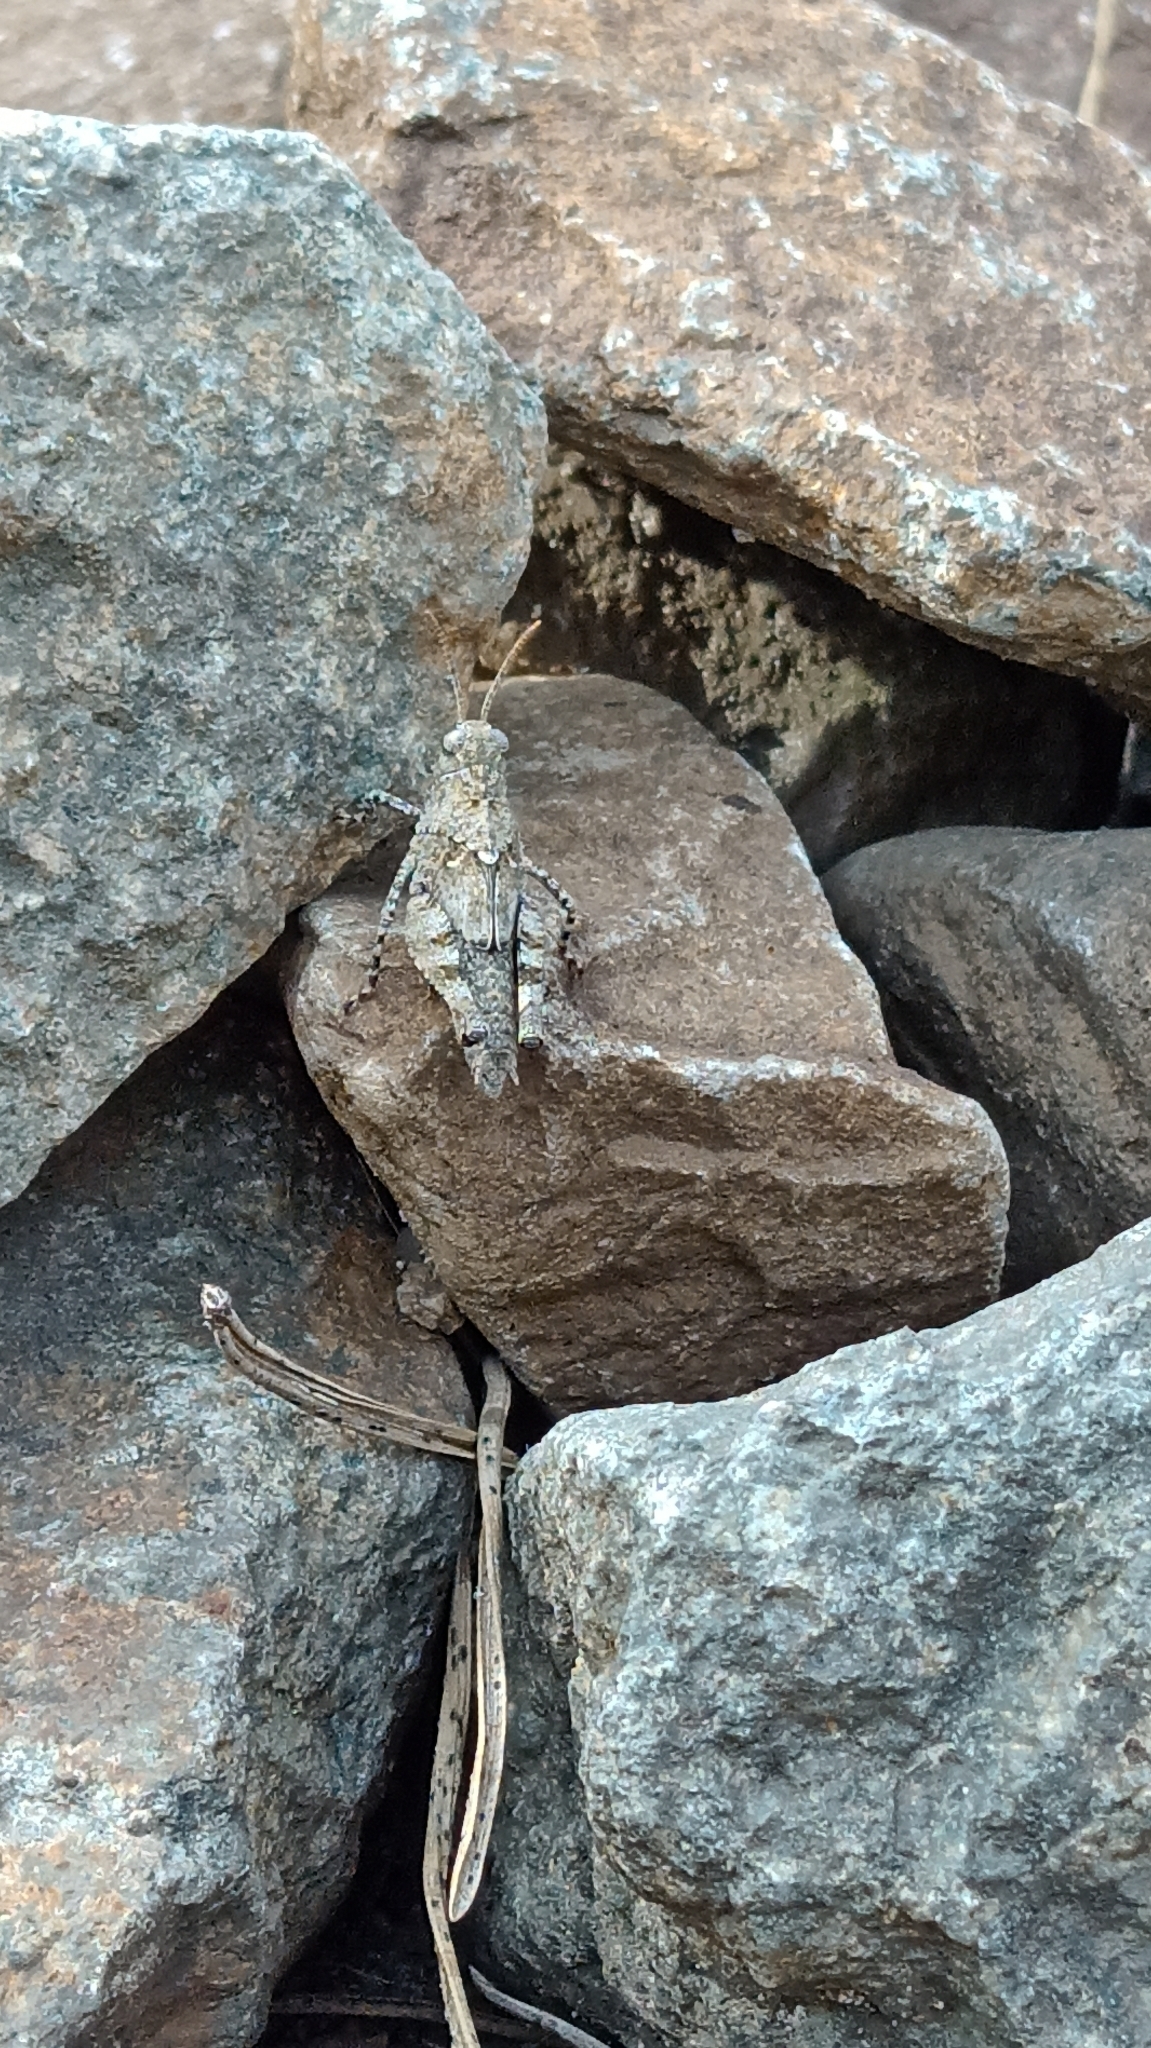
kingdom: Animalia
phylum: Arthropoda
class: Insecta
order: Orthoptera
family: Acrididae
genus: Oedipoda
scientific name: Oedipoda caerulescens
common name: Blue-winged grasshopper
